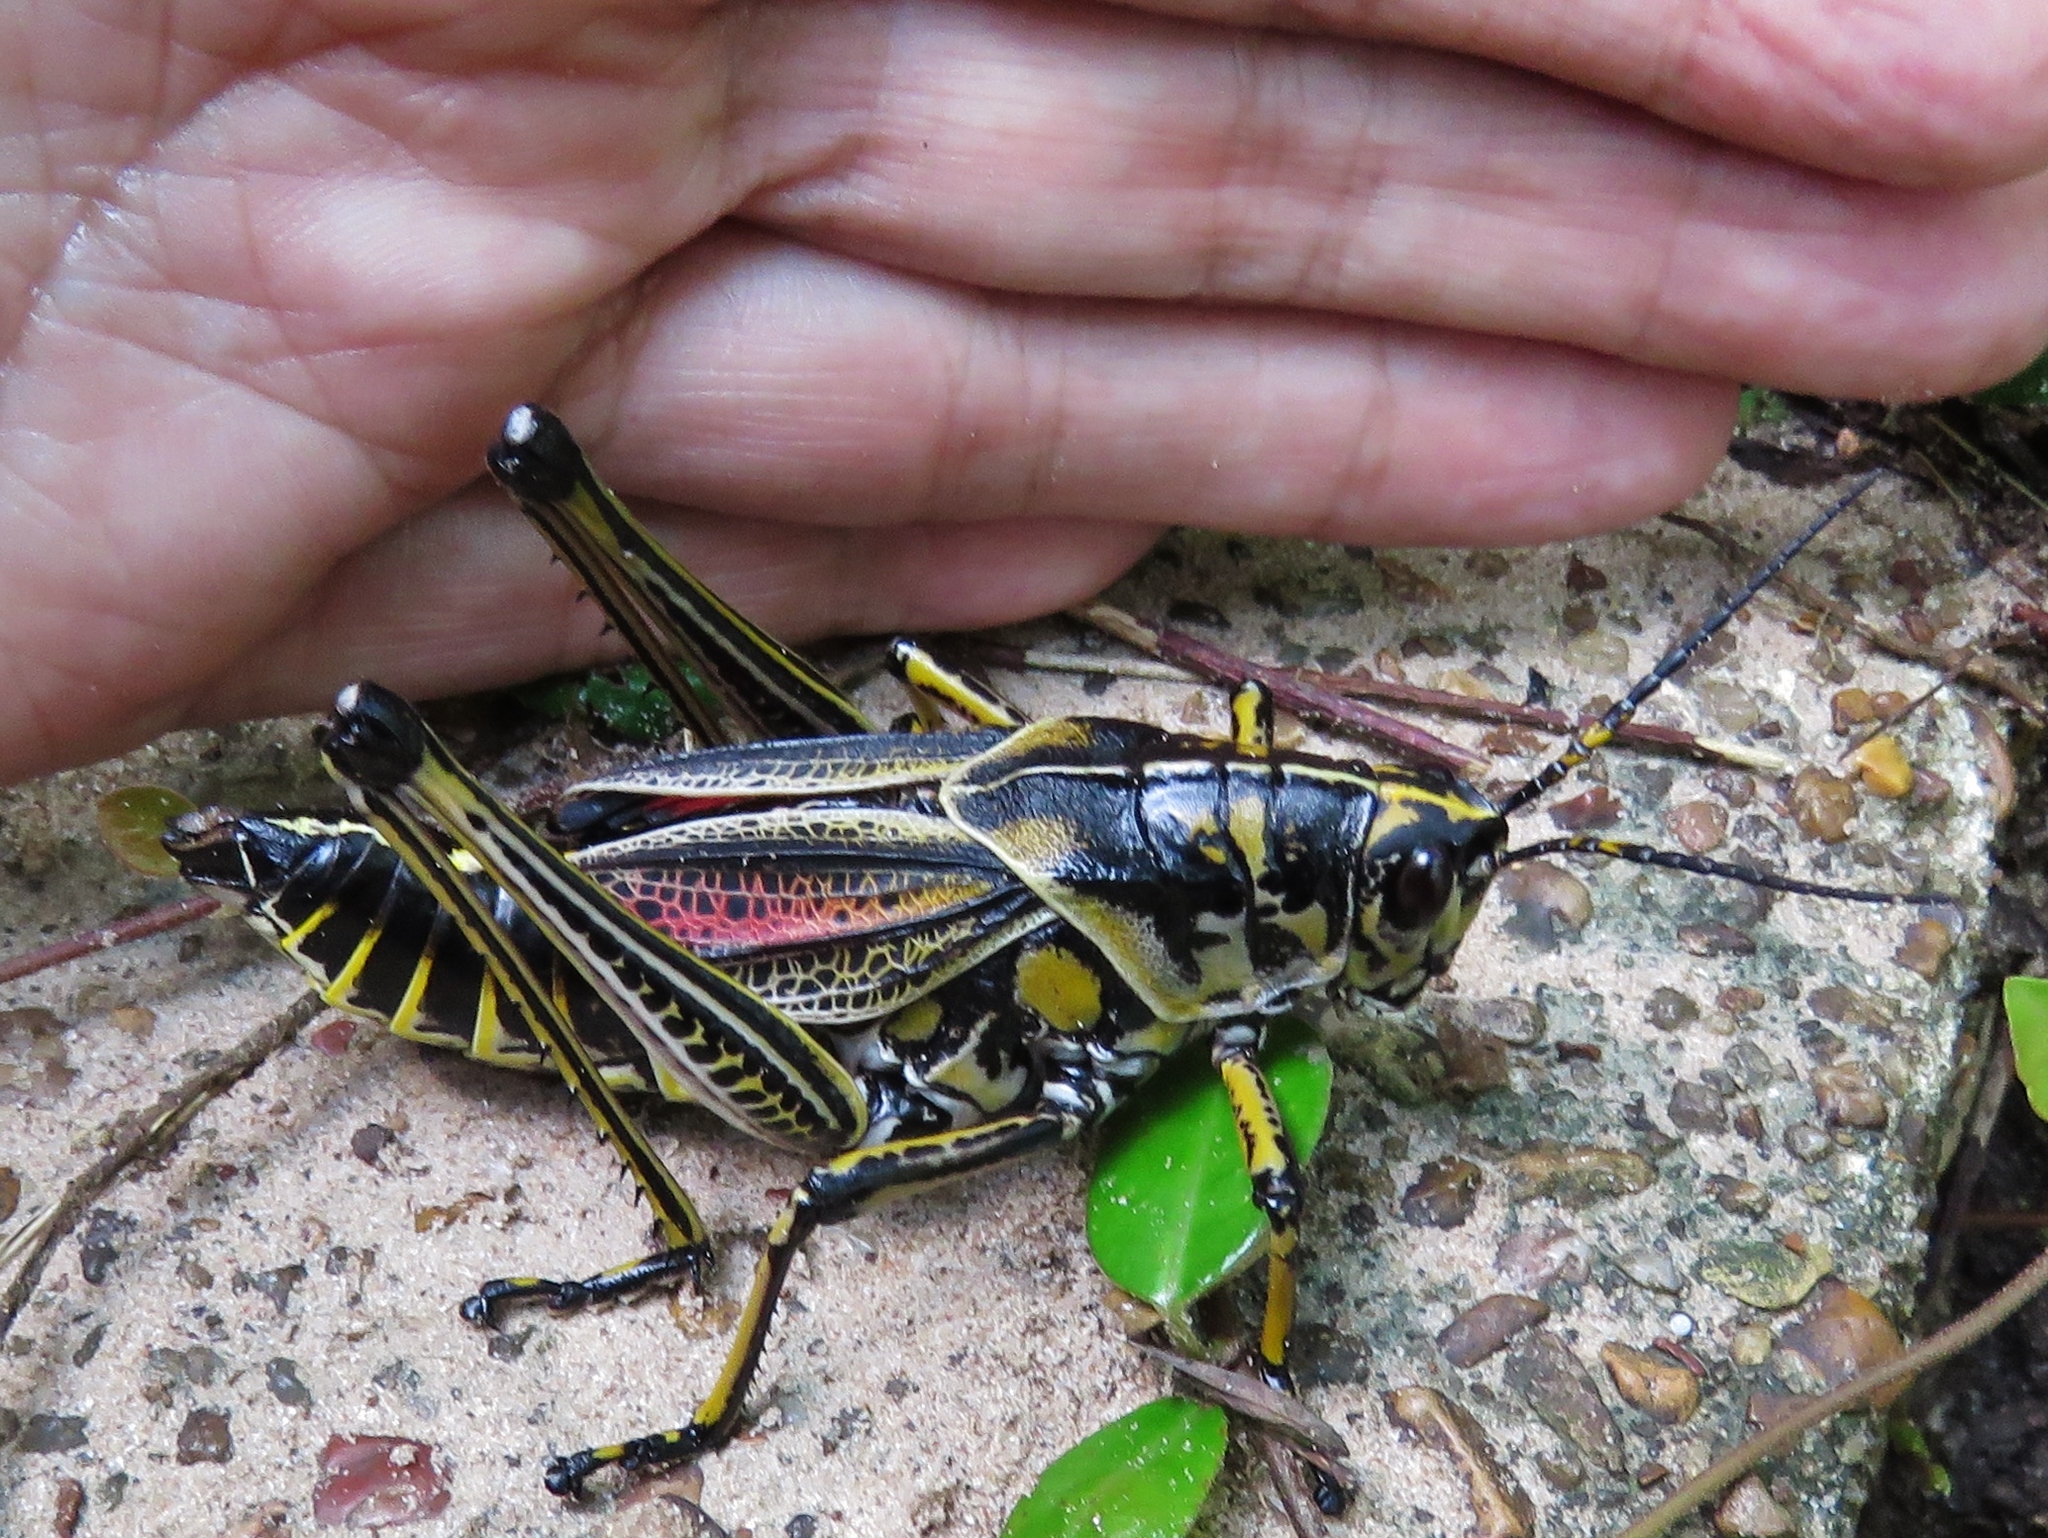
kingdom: Animalia
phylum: Arthropoda
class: Insecta
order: Orthoptera
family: Romaleidae
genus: Romalea
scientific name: Romalea microptera
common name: Eastern lubber grasshopper
